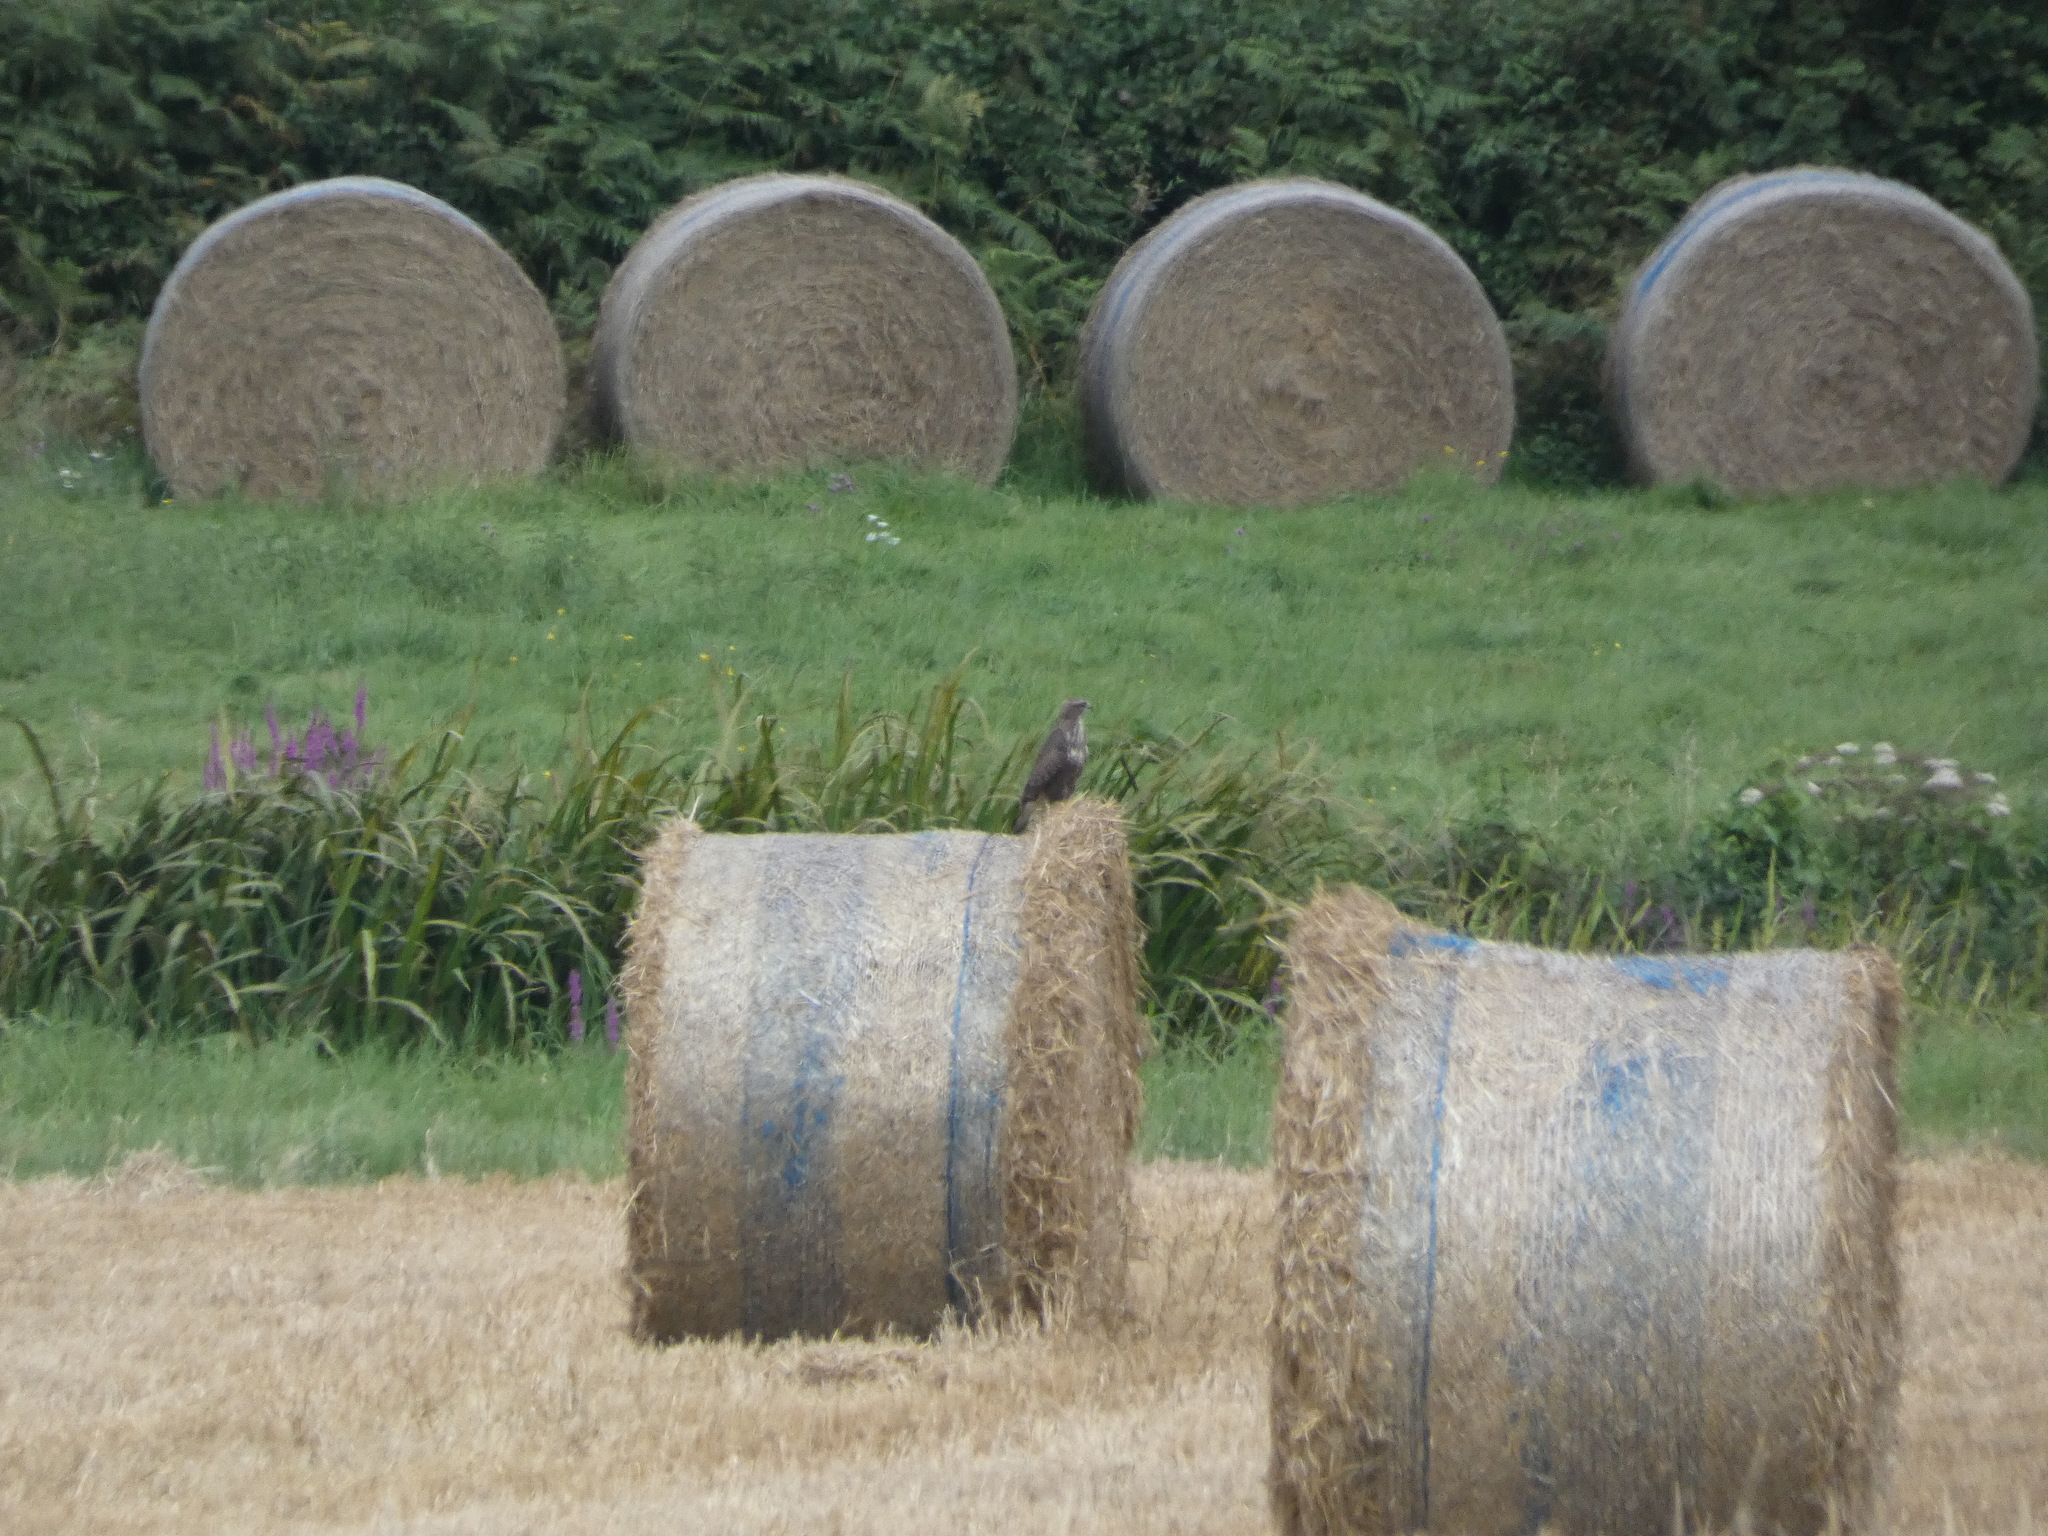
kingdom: Animalia
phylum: Chordata
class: Aves
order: Accipitriformes
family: Accipitridae
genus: Buteo
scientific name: Buteo buteo
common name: Common buzzard
